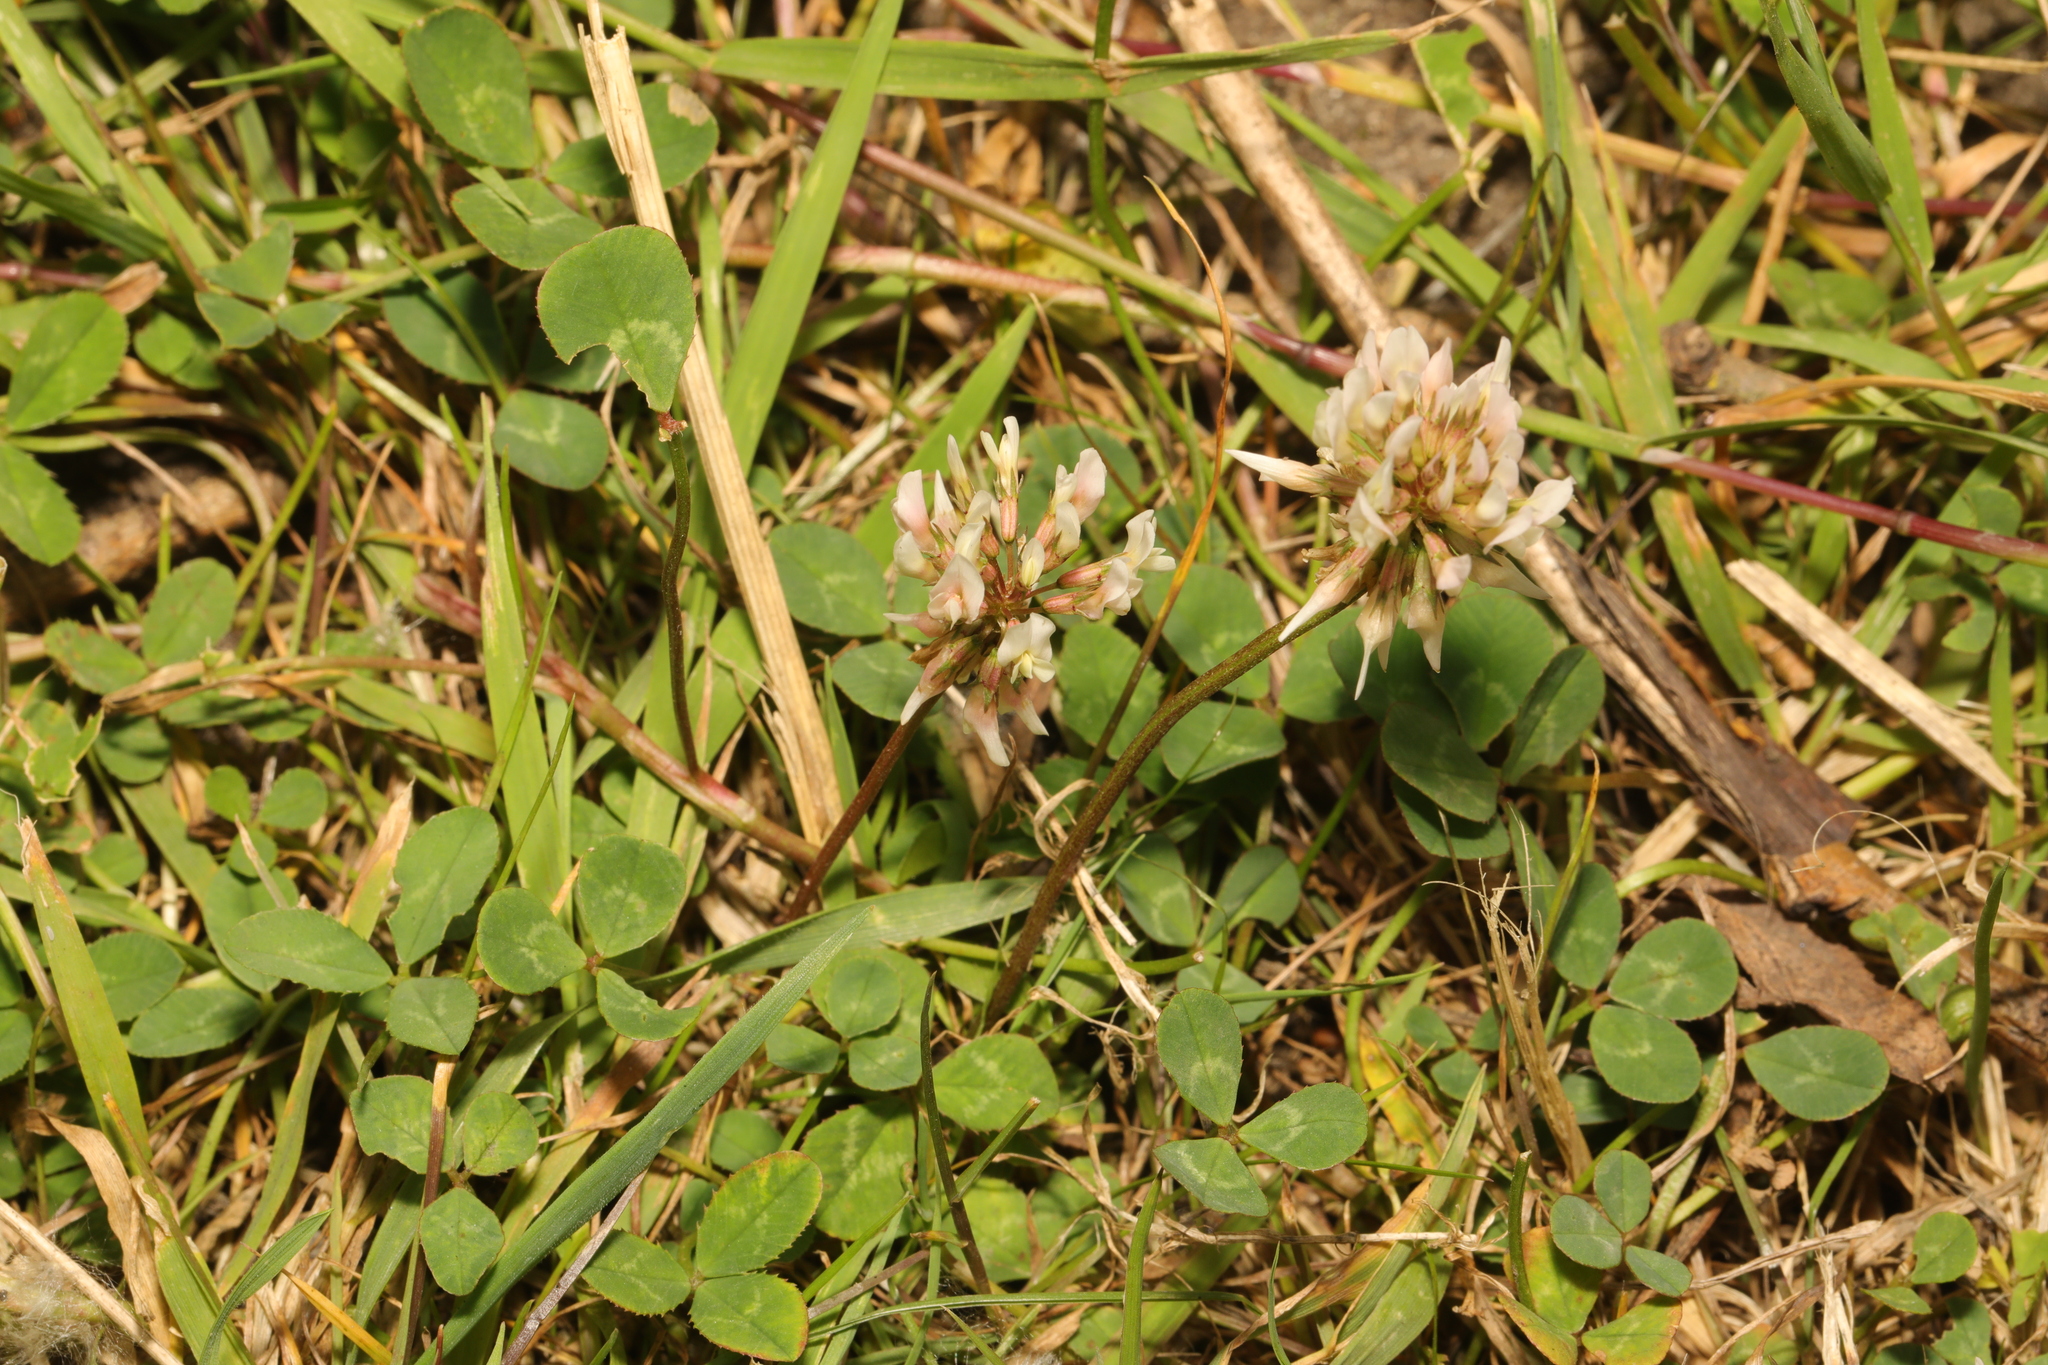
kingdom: Plantae
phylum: Tracheophyta
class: Magnoliopsida
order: Fabales
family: Fabaceae
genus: Trifolium
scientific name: Trifolium repens
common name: White clover
